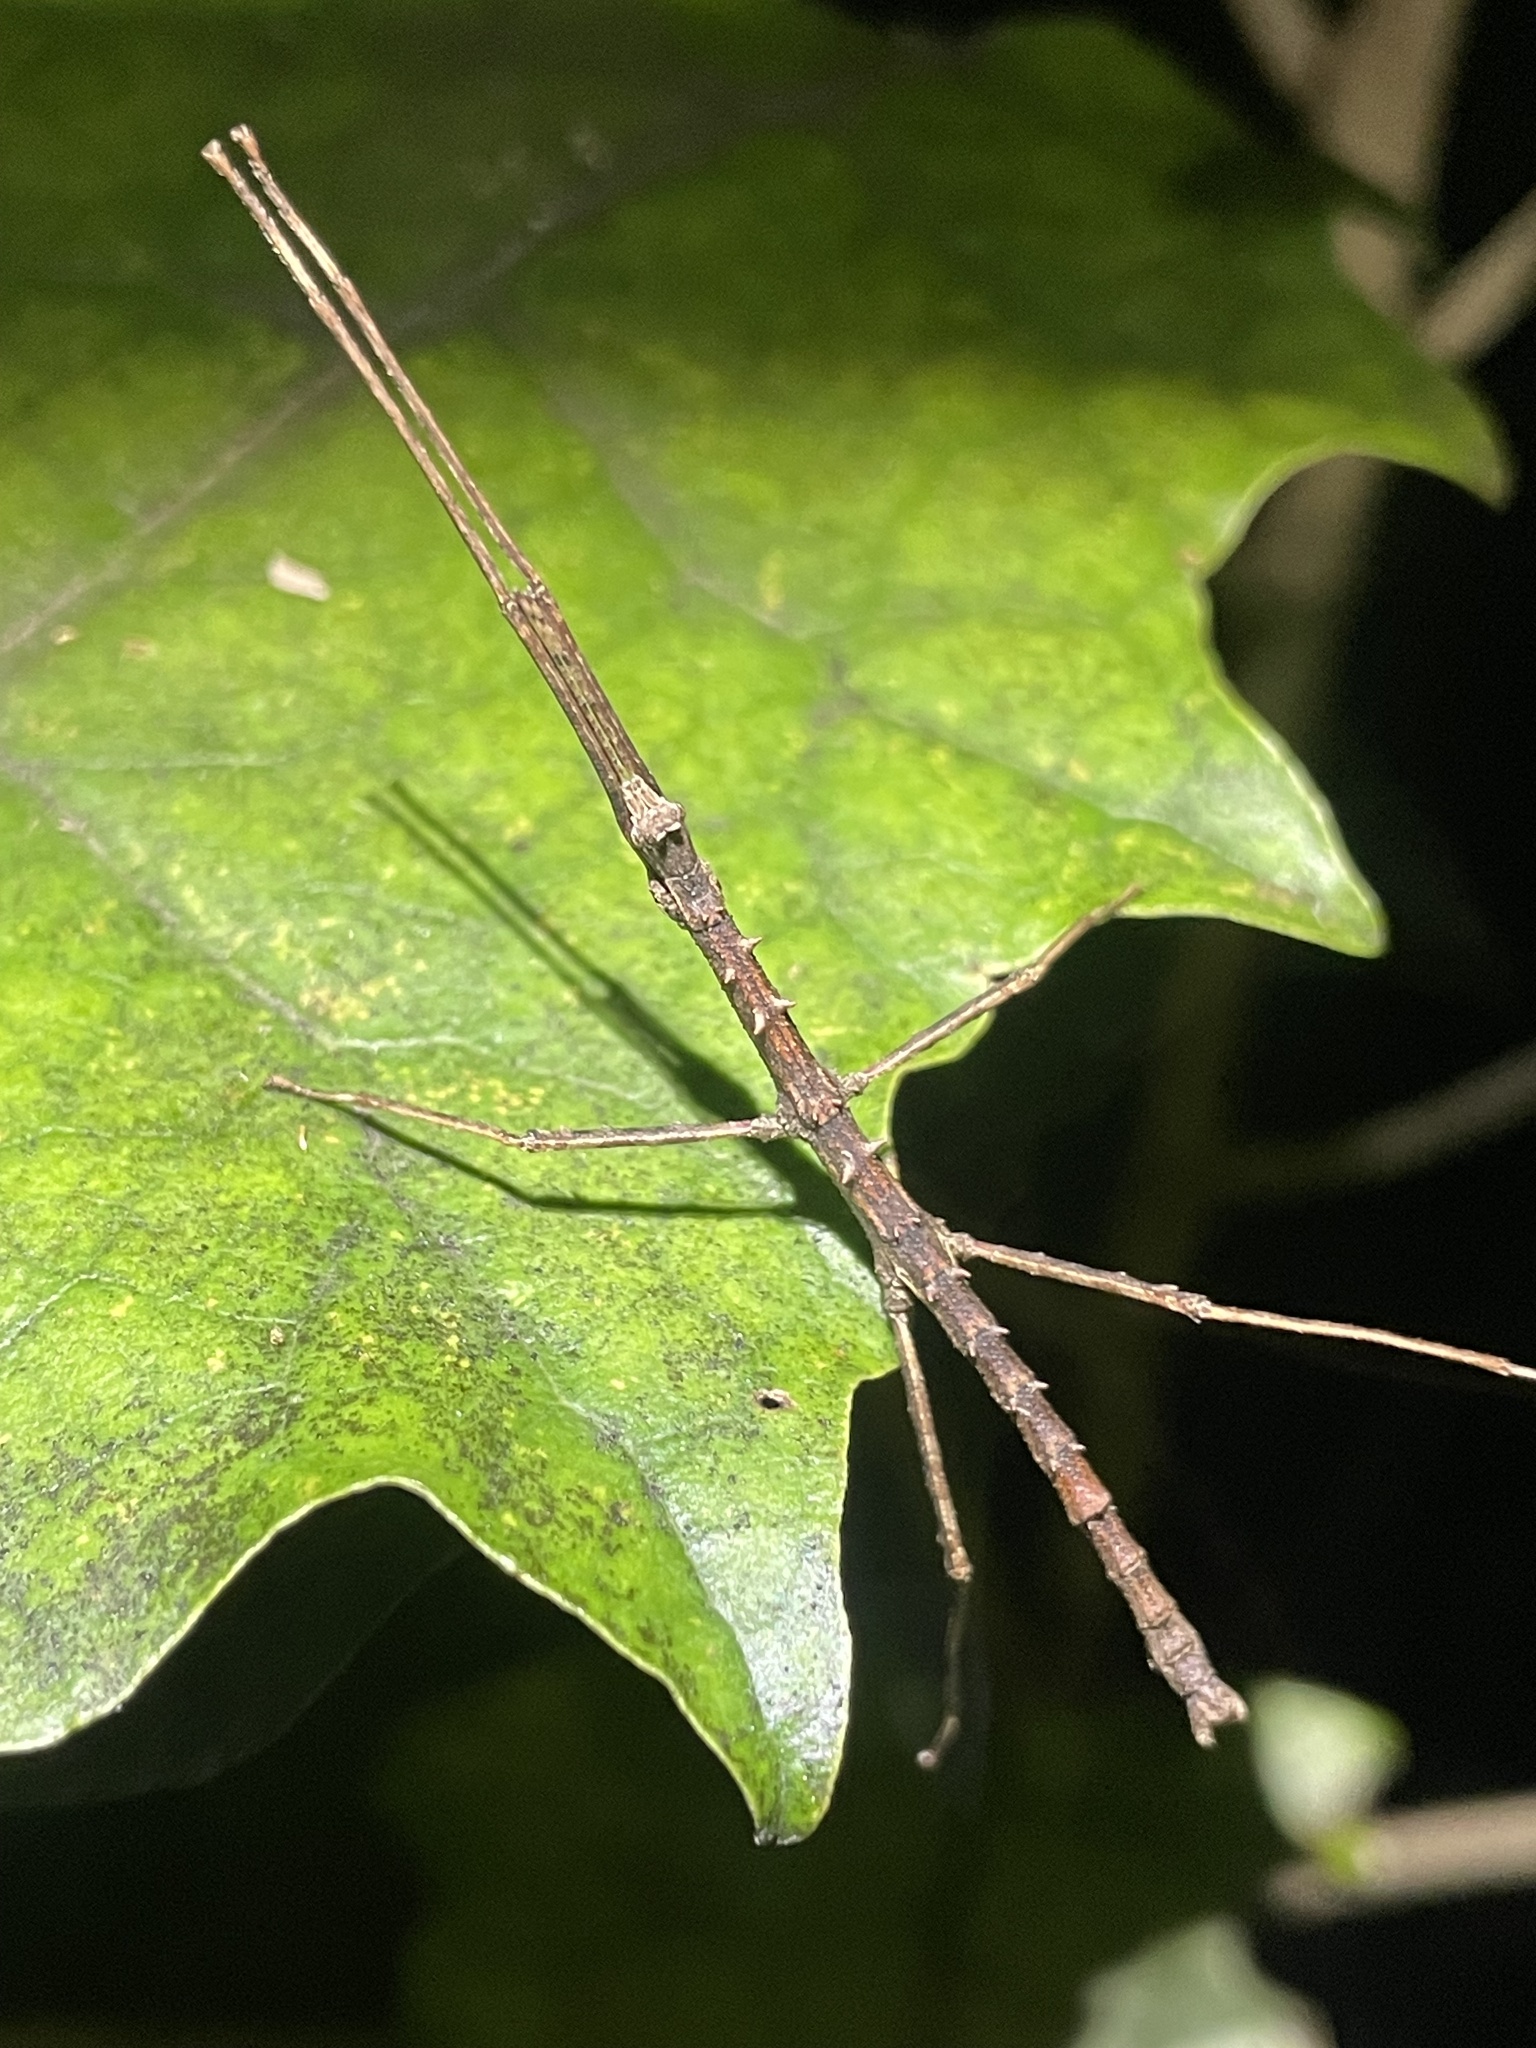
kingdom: Animalia
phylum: Arthropoda
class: Insecta
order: Phasmida
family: Phasmatidae
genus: Micrarchus
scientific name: Micrarchus hystriculeus
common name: The lesser spiny stick insect
